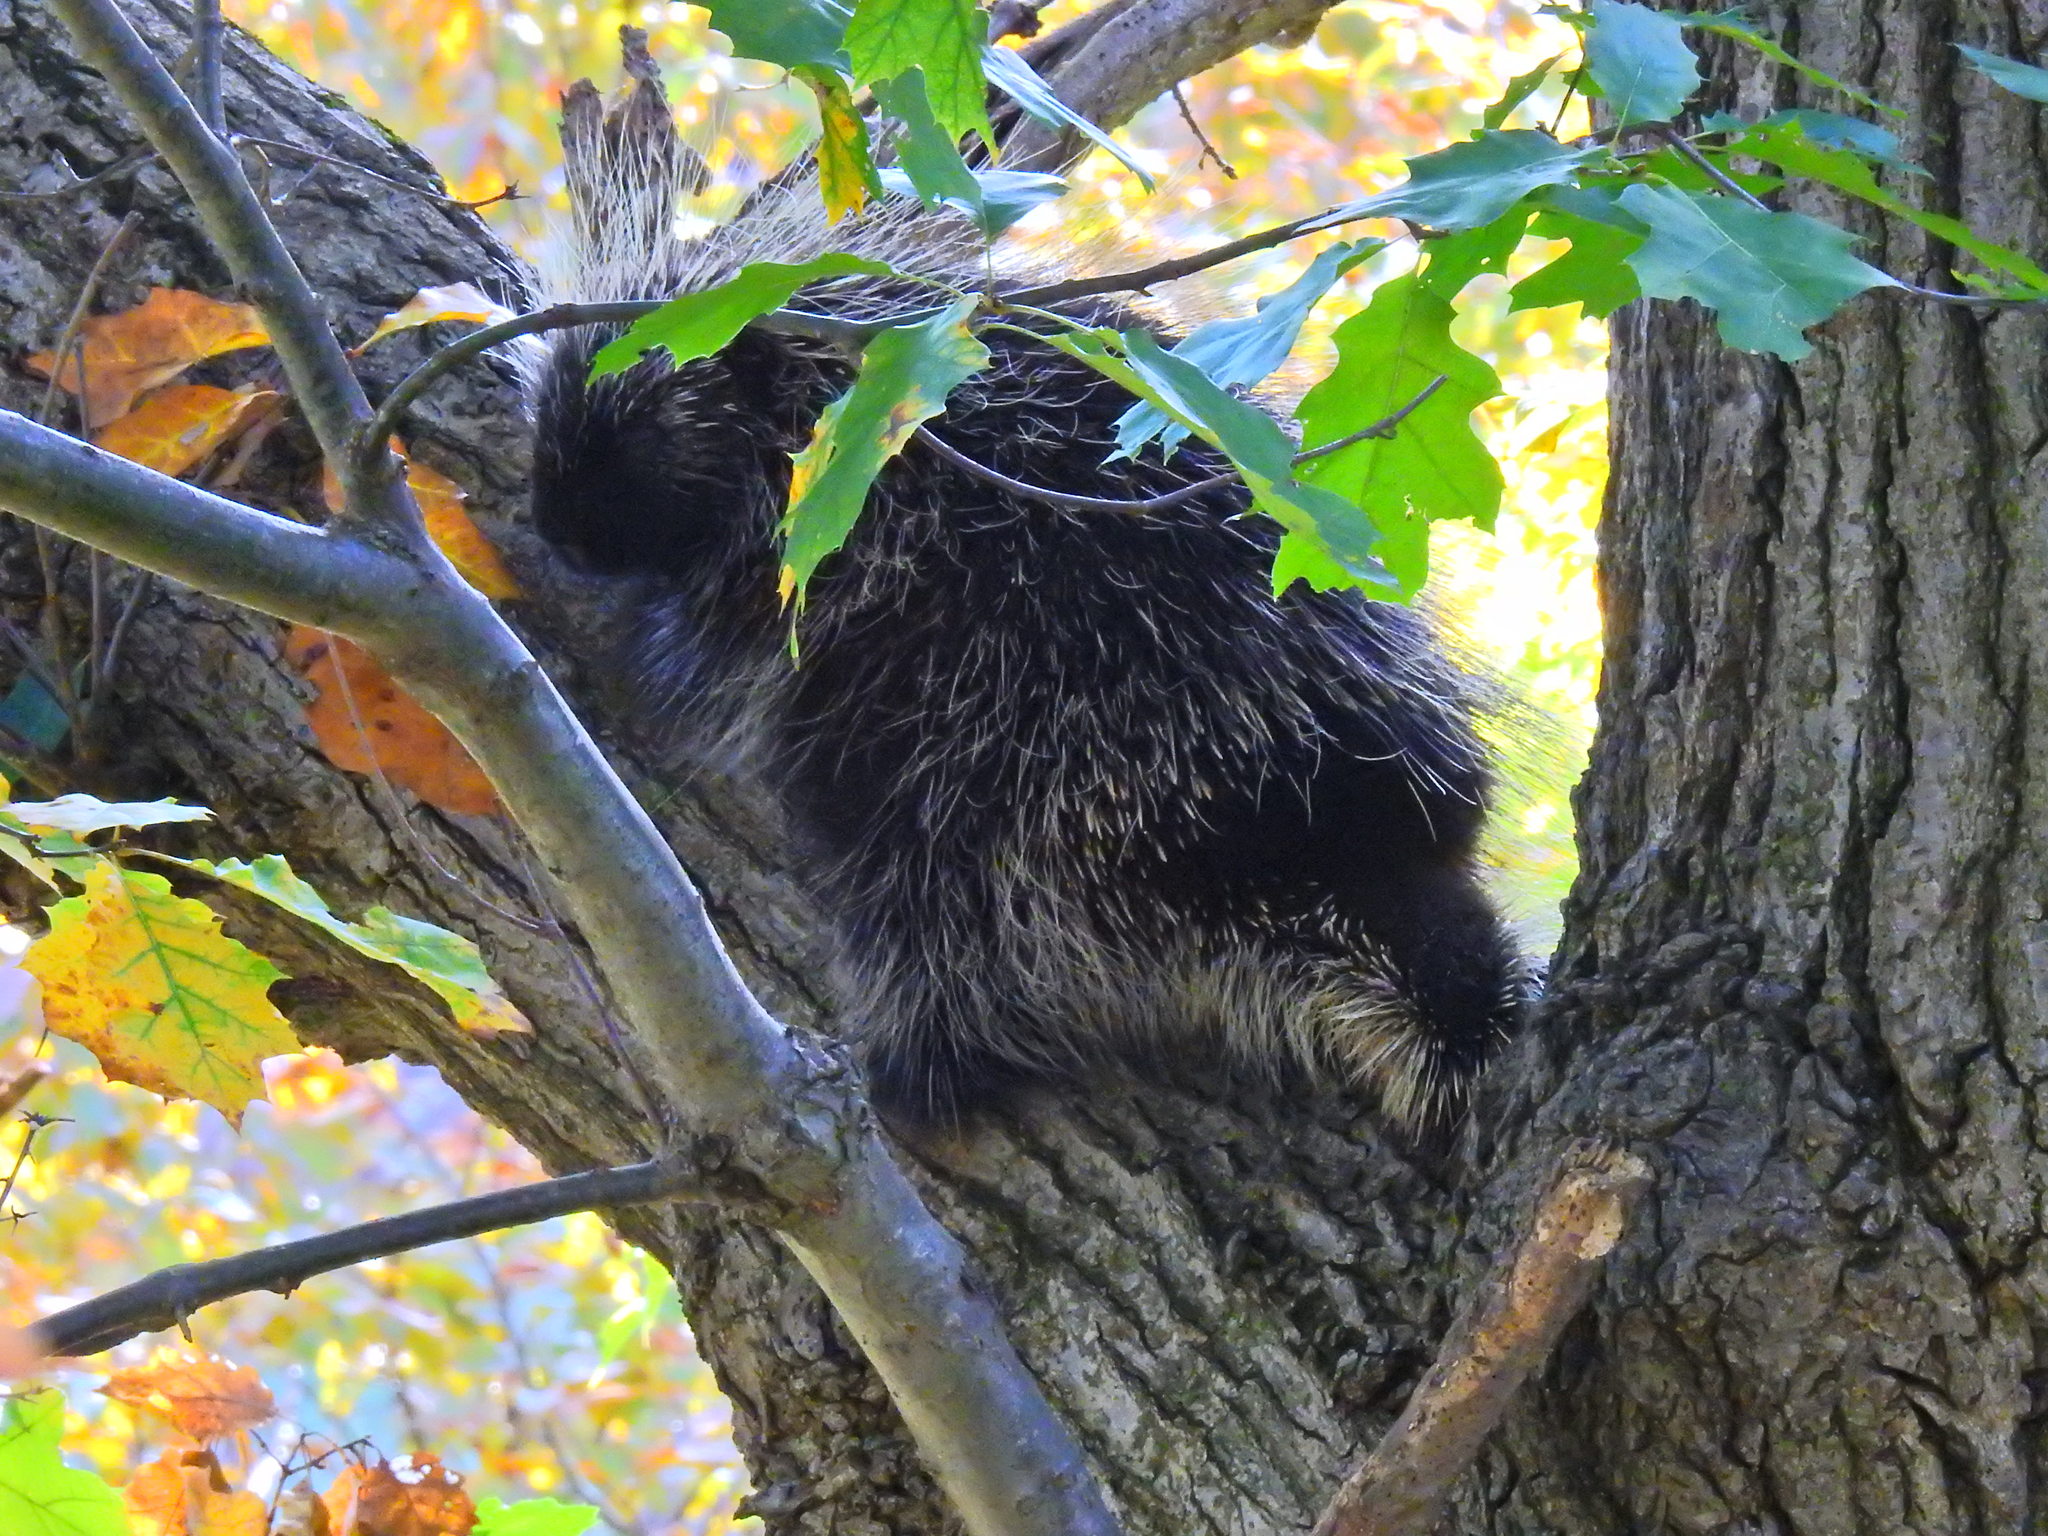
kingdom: Animalia
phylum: Chordata
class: Mammalia
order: Rodentia
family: Erethizontidae
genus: Erethizon
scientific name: Erethizon dorsatus
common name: North american porcupine
